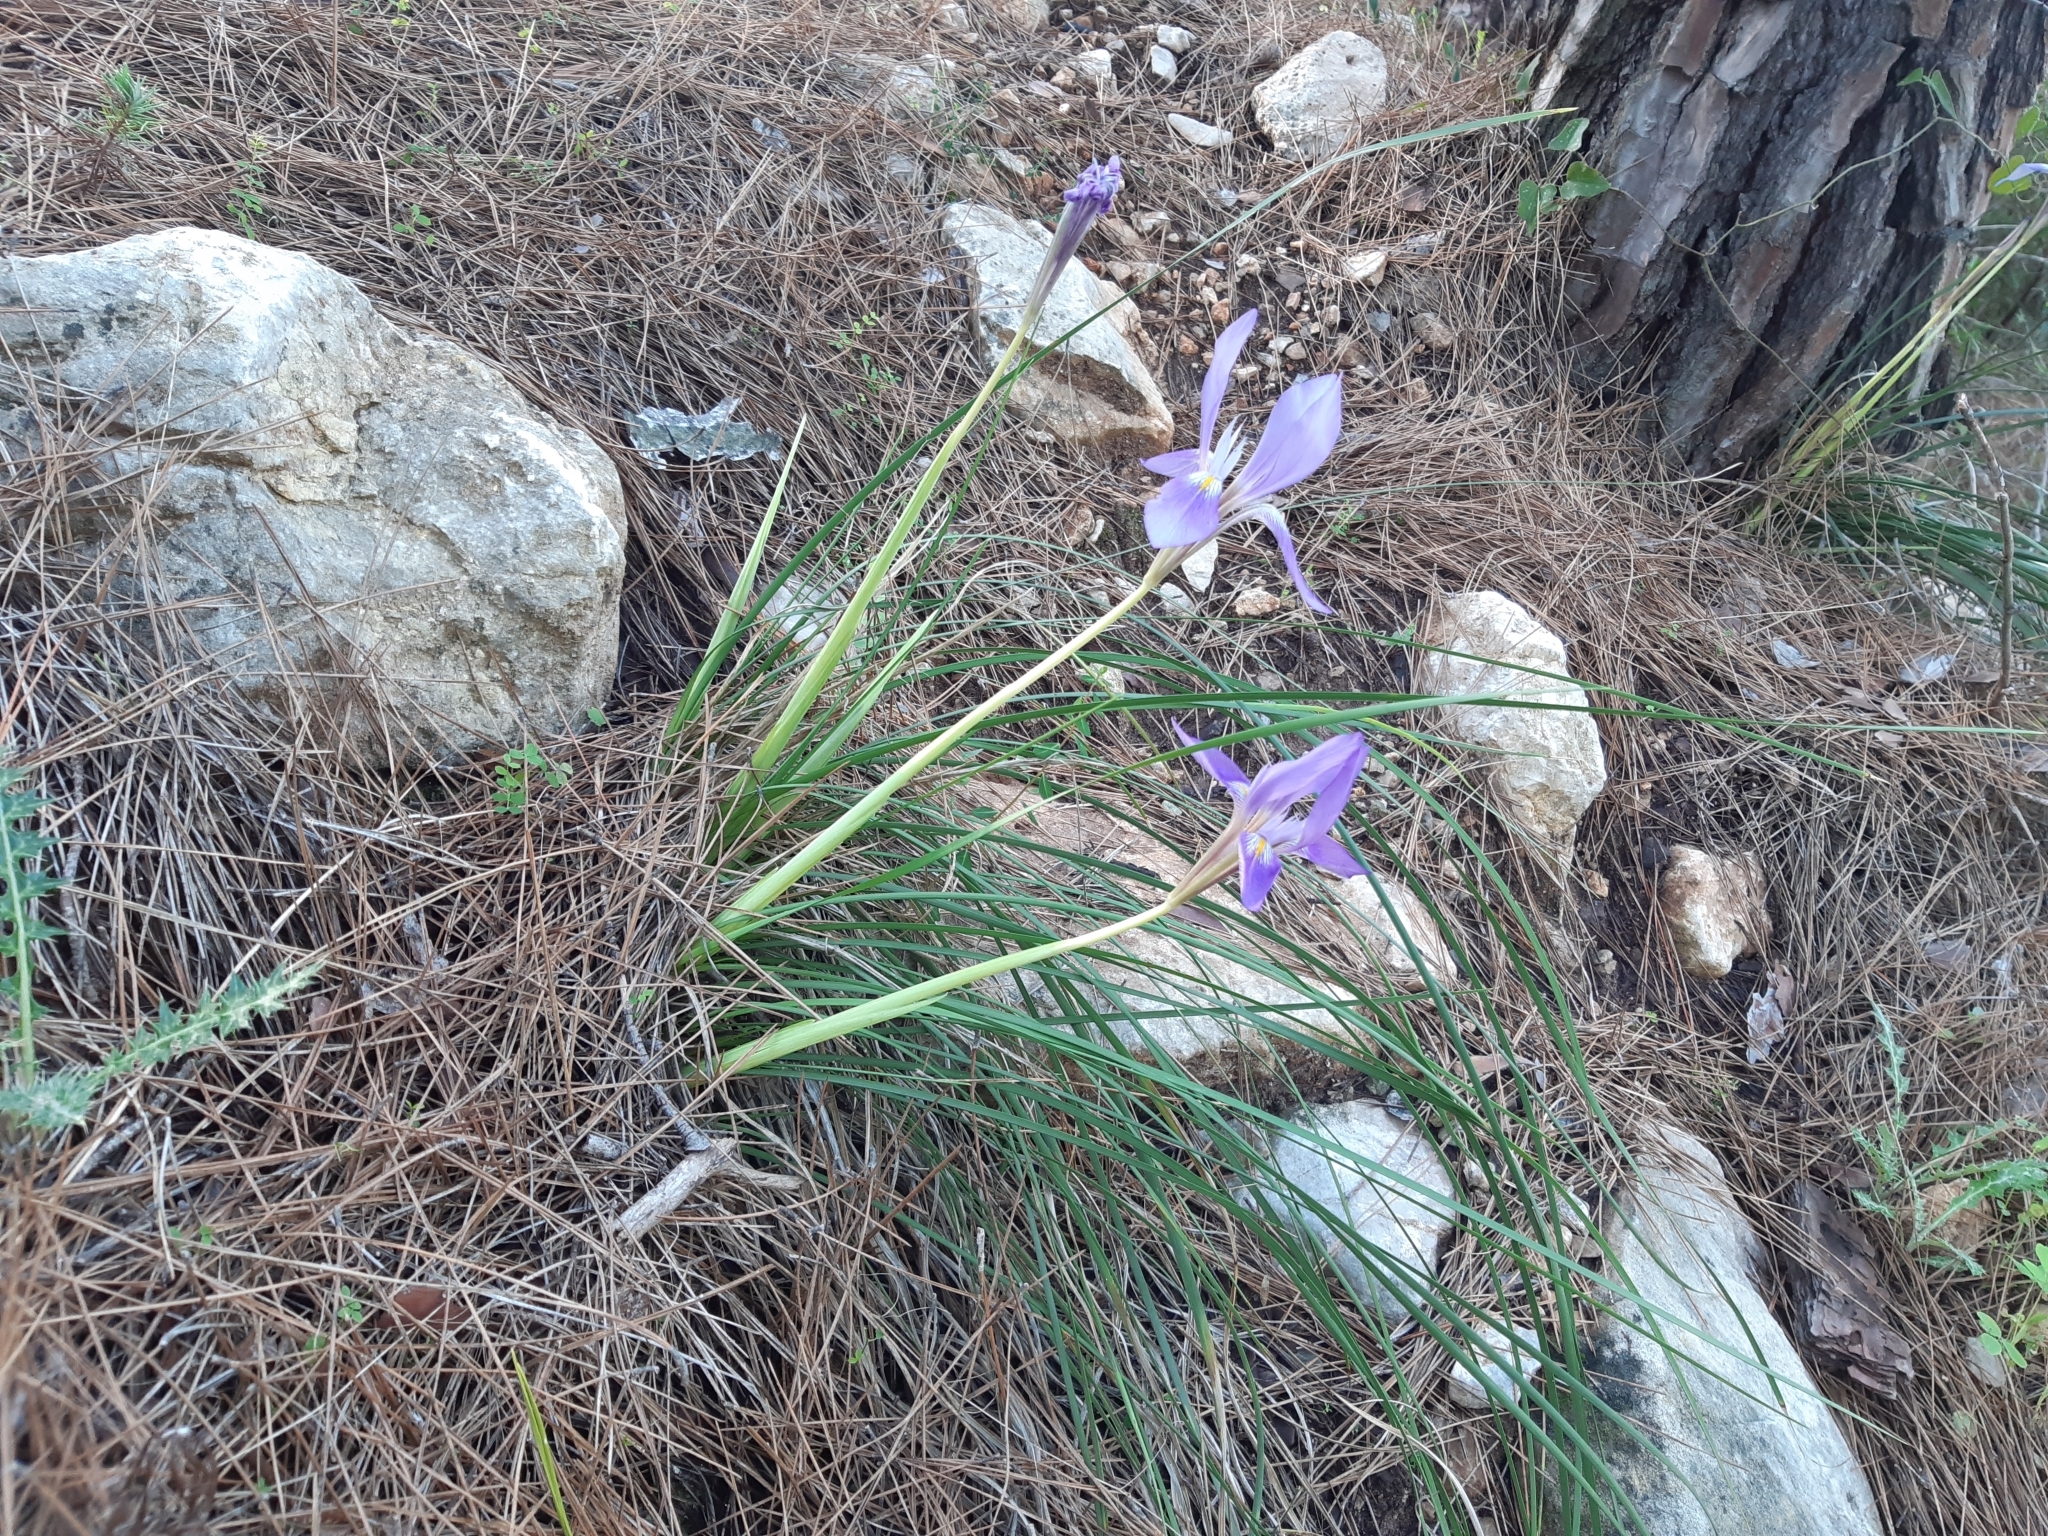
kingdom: Plantae
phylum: Tracheophyta
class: Liliopsida
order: Asparagales
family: Iridaceae
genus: Iris
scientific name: Iris unguicularis
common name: Algerian iris
